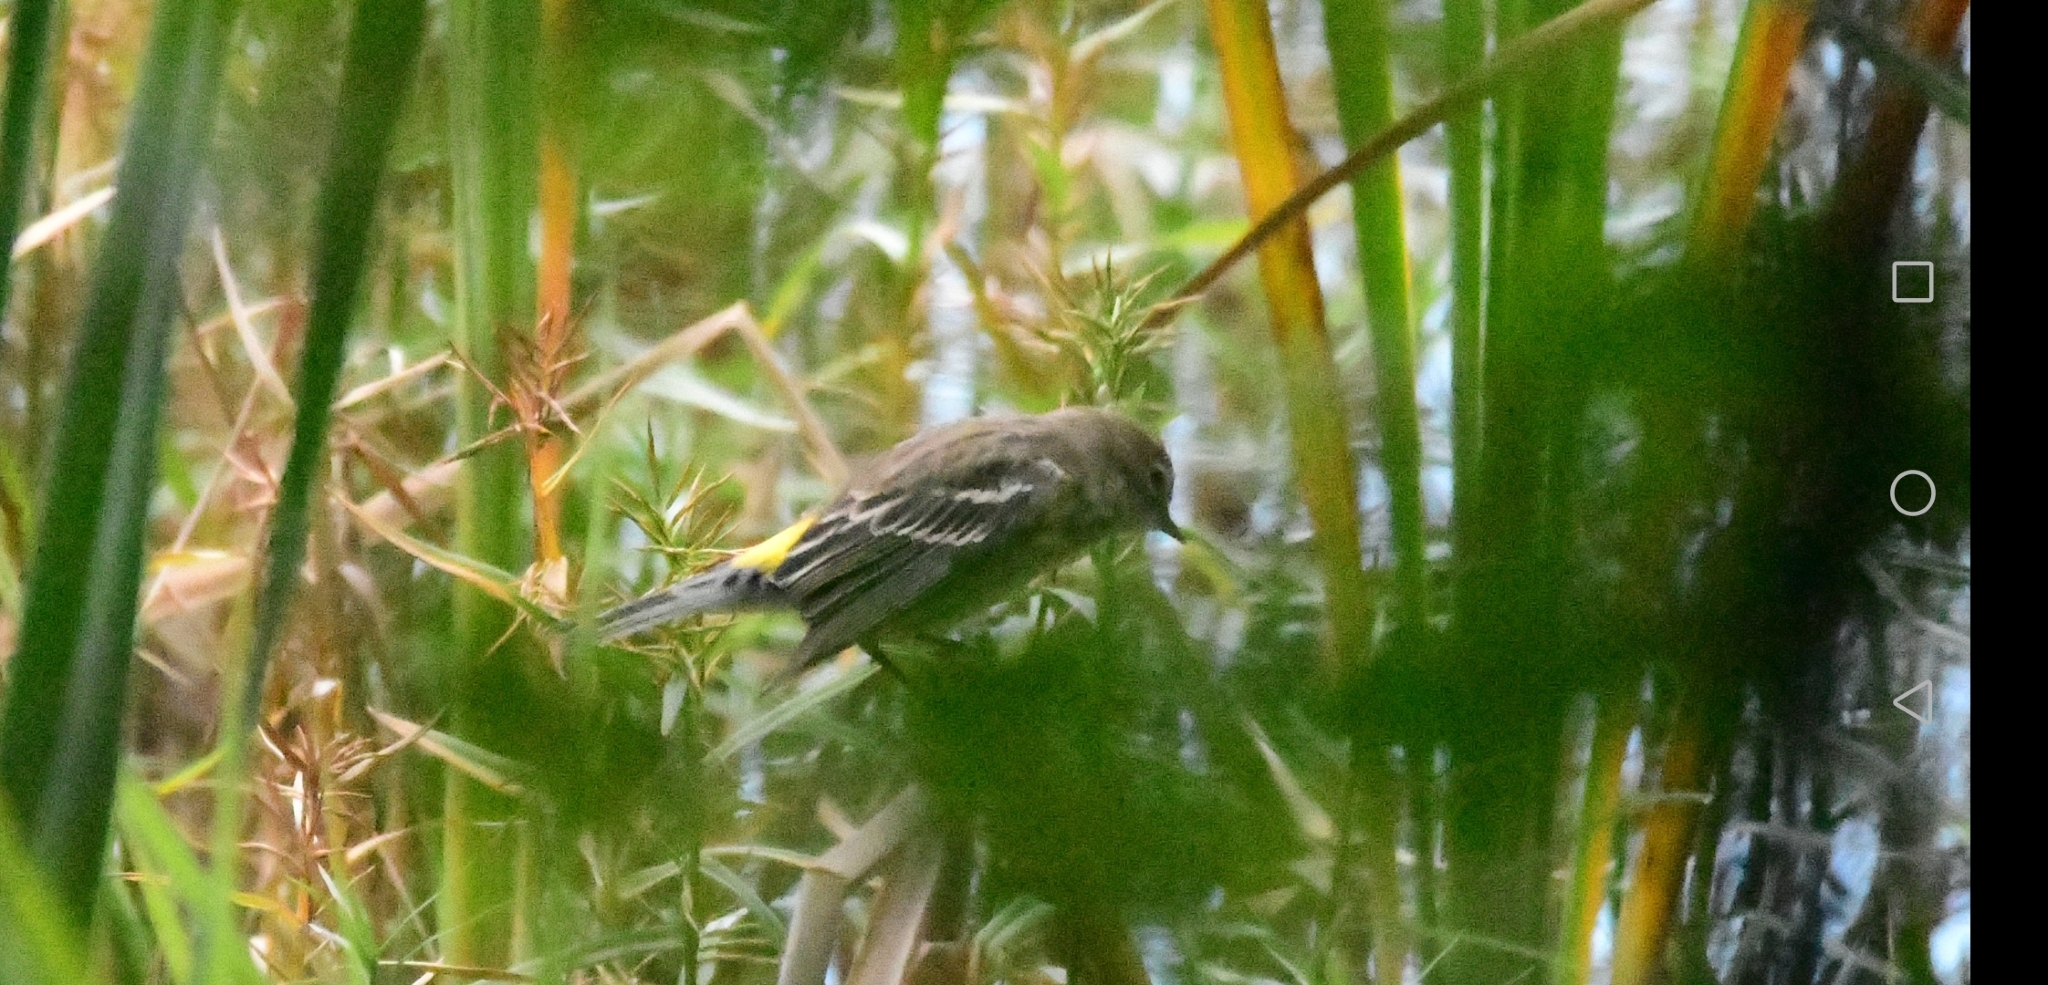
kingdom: Animalia
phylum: Chordata
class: Aves
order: Passeriformes
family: Parulidae
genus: Setophaga
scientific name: Setophaga coronata
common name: Myrtle warbler
